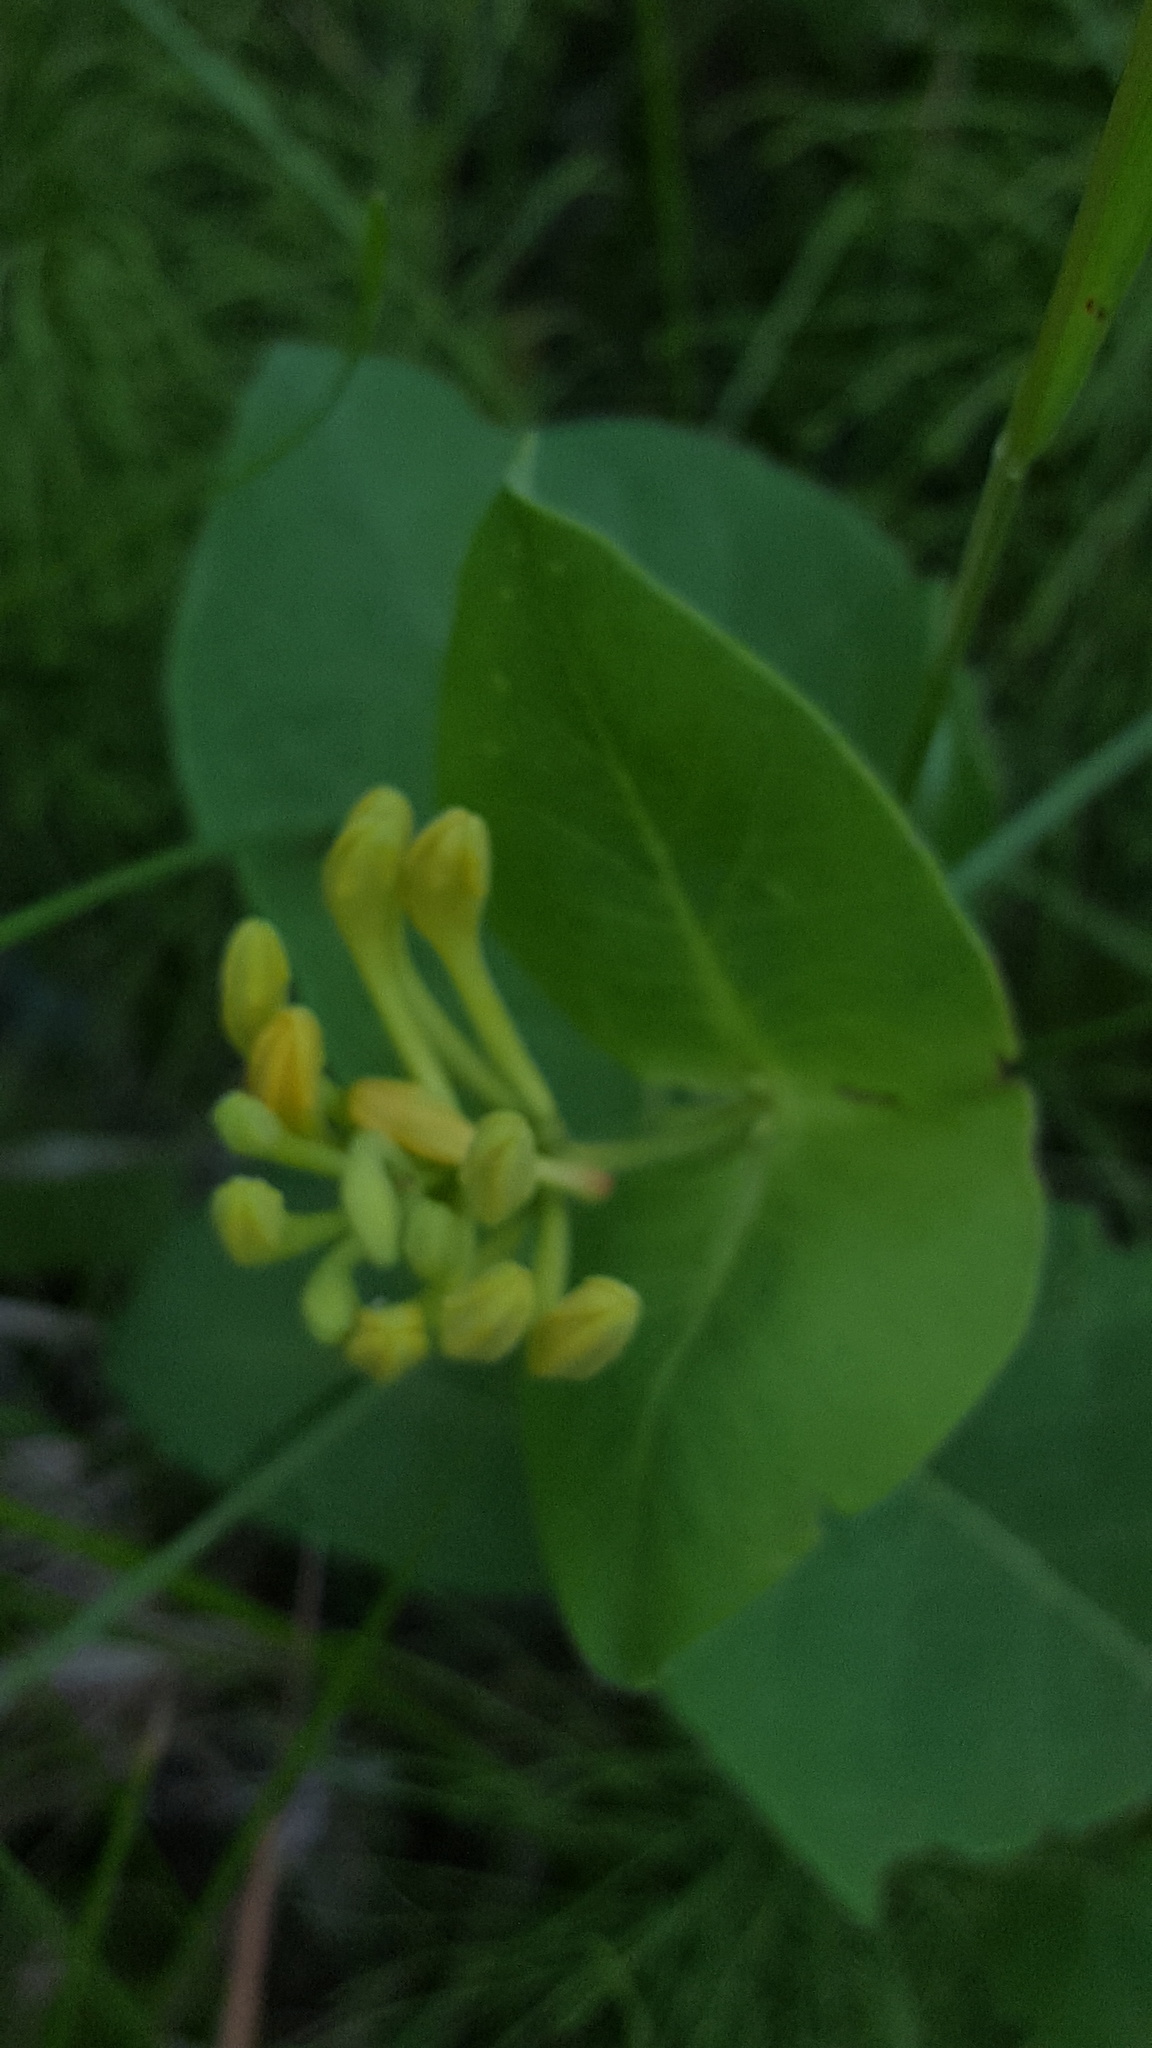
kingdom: Plantae
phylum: Tracheophyta
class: Magnoliopsida
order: Dipsacales
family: Caprifoliaceae
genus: Lonicera
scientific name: Lonicera hirsuta
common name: Hairy honeysuckle
